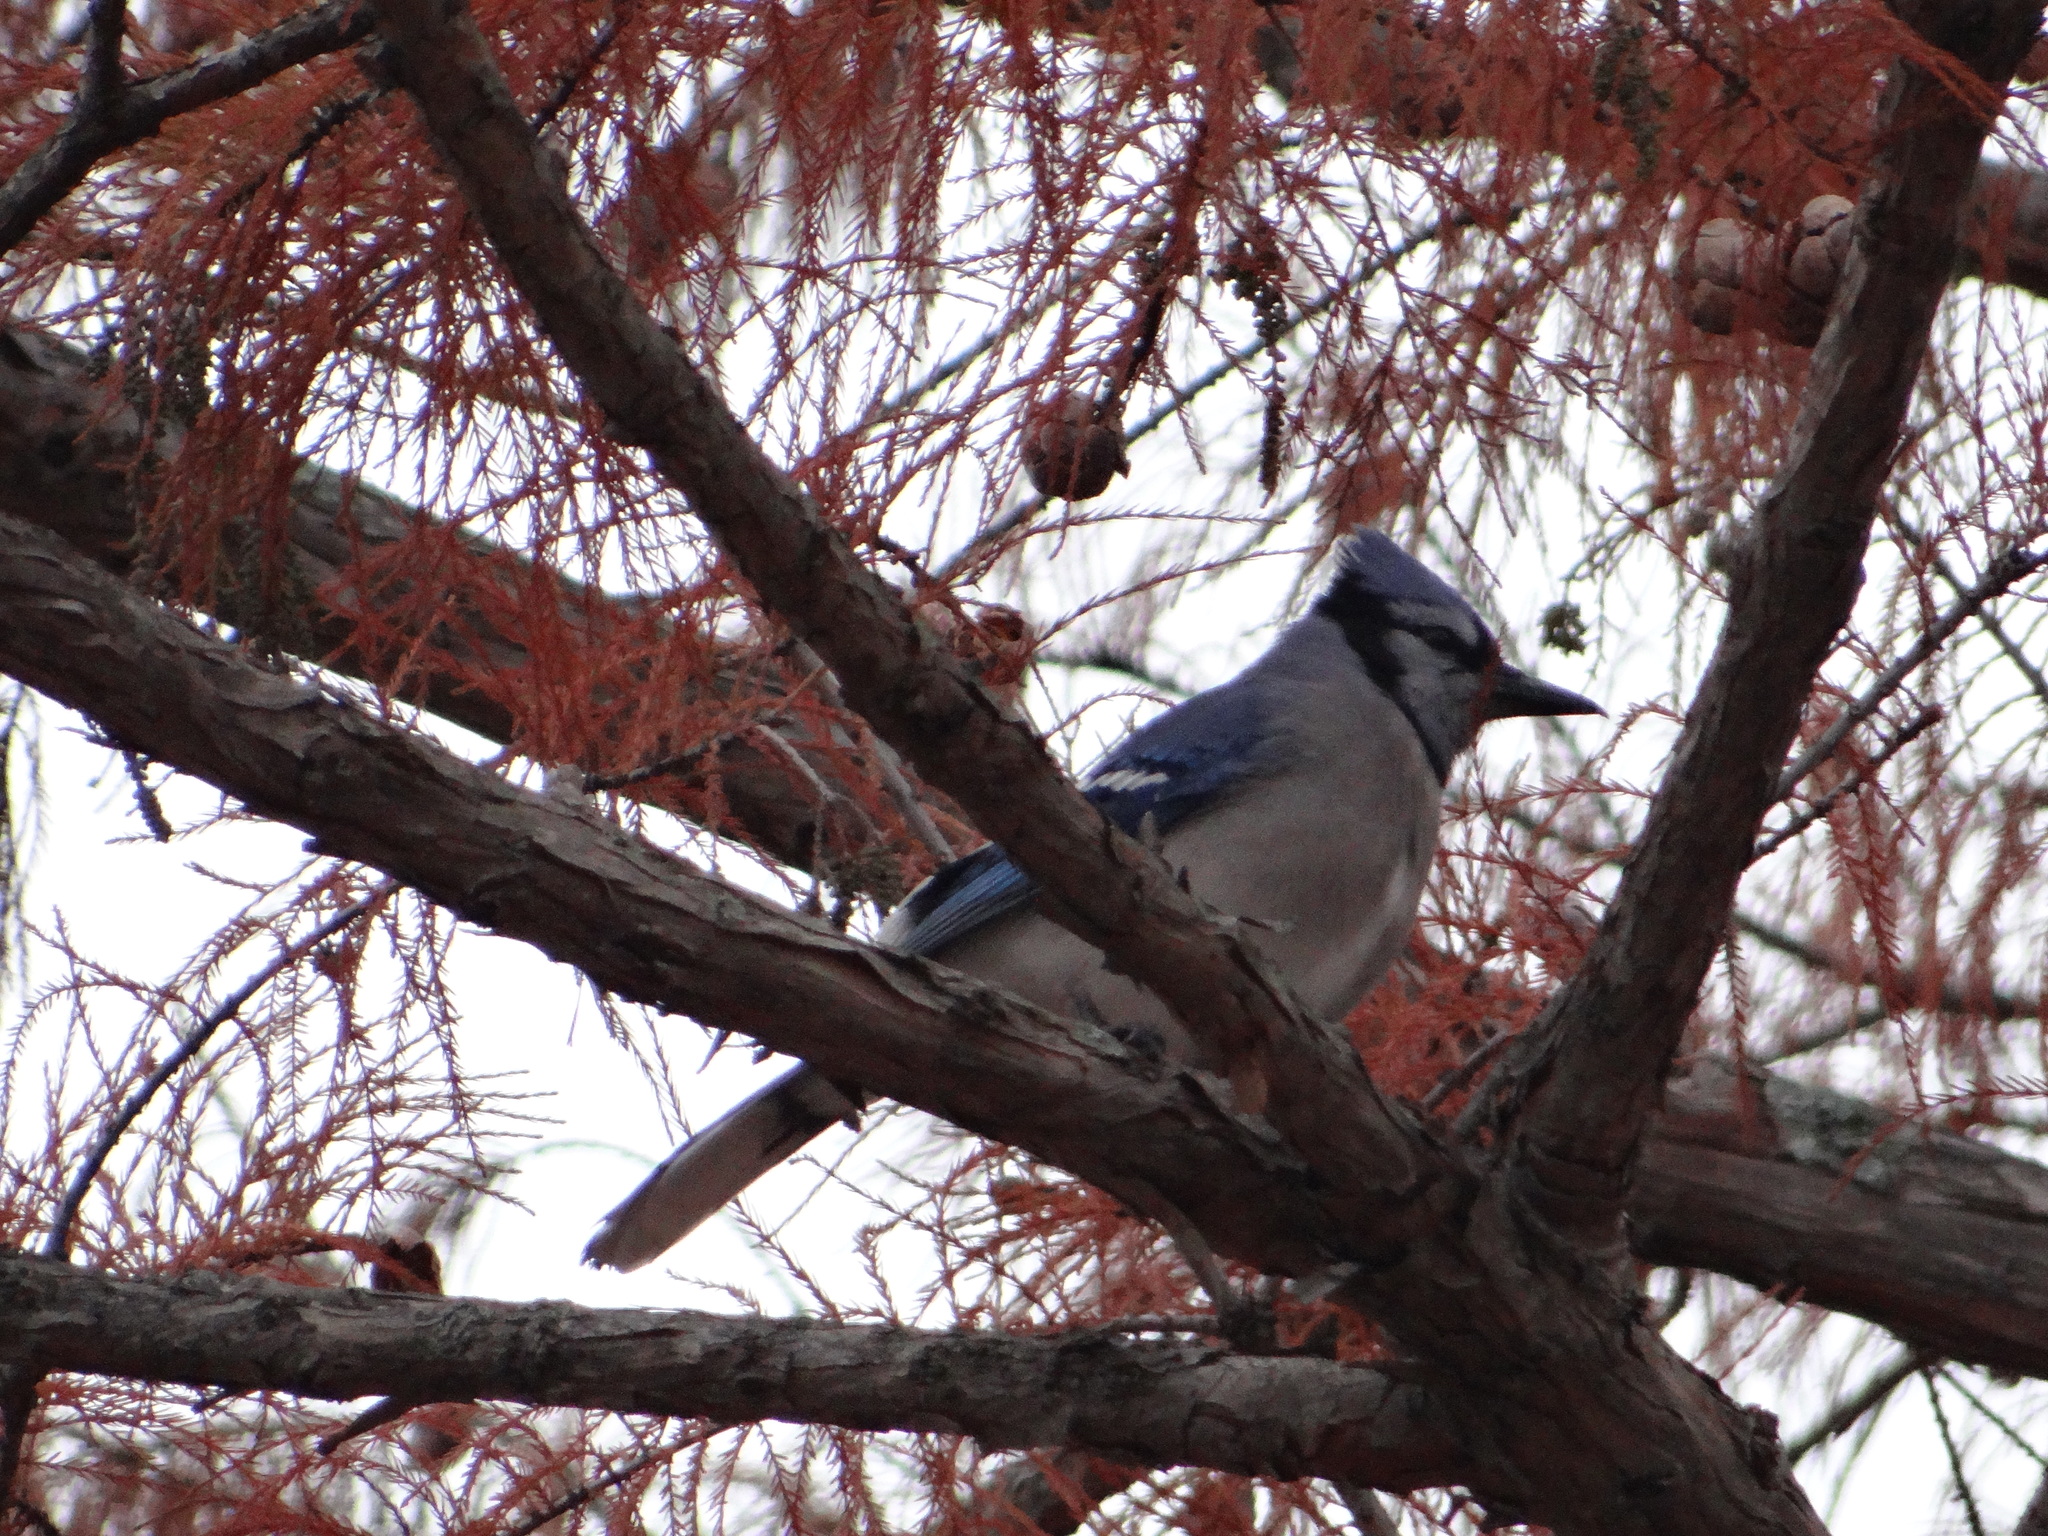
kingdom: Animalia
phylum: Chordata
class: Aves
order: Passeriformes
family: Corvidae
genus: Cyanocitta
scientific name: Cyanocitta cristata
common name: Blue jay
